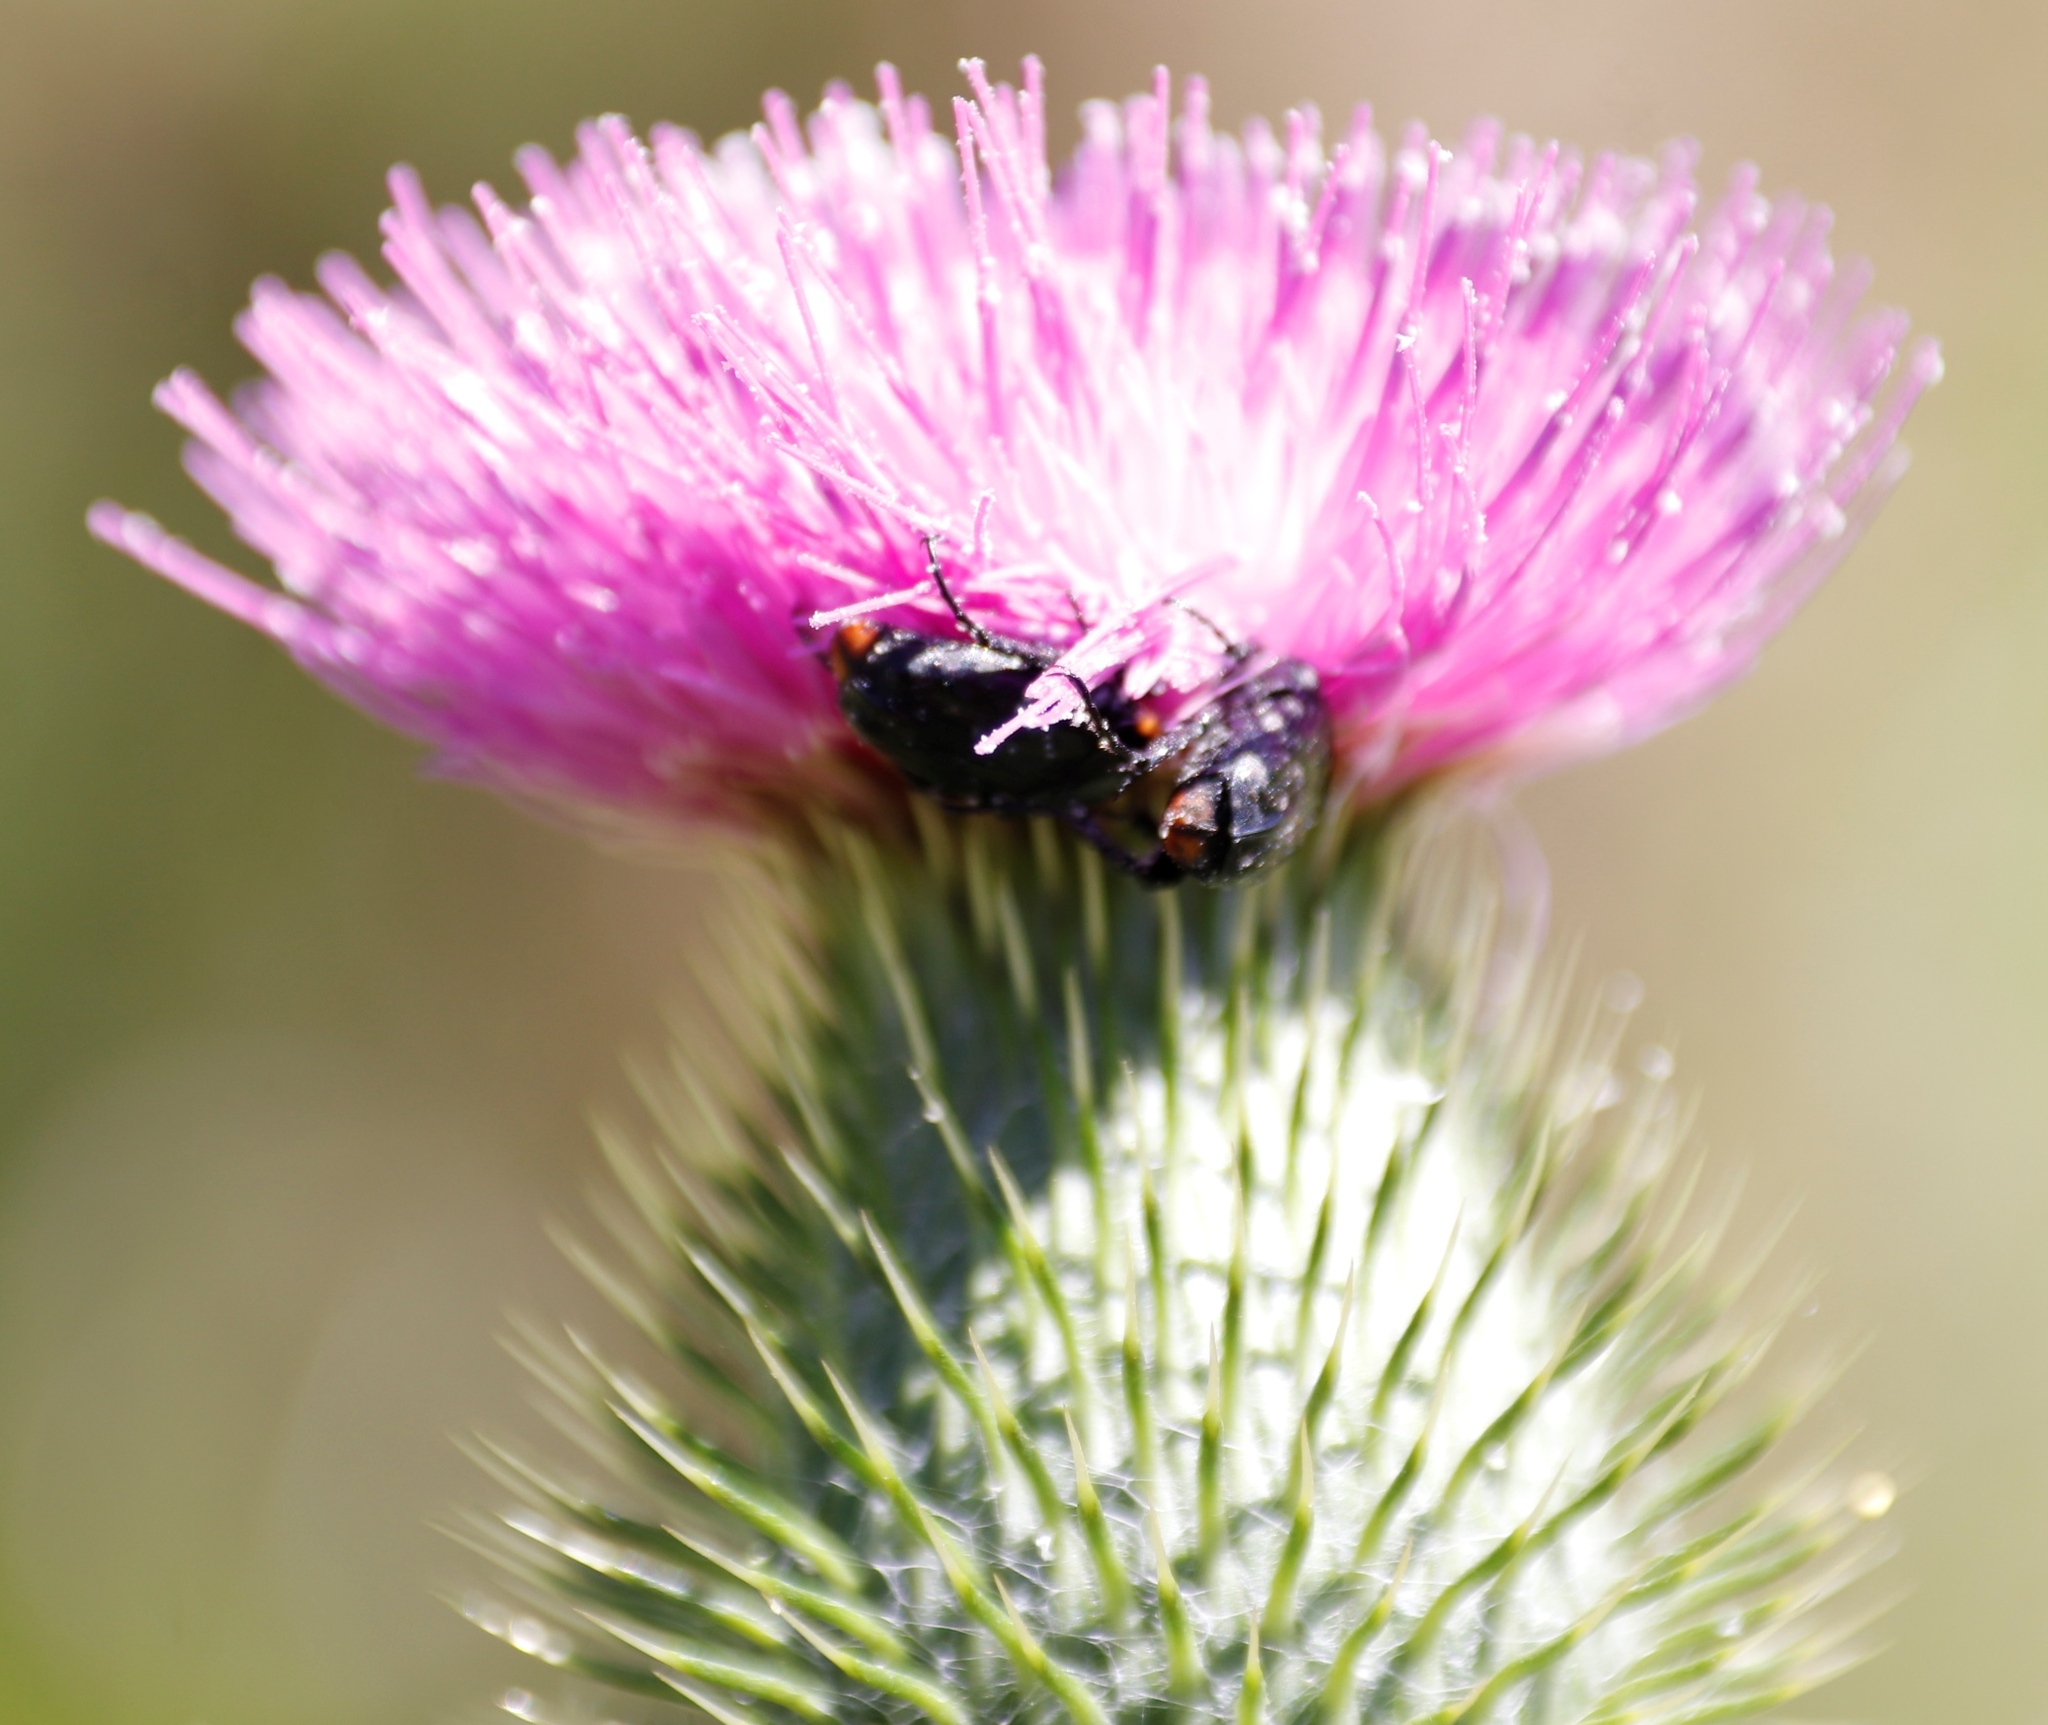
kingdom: Animalia
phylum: Arthropoda
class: Insecta
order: Coleoptera
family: Scarabaeidae
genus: Oxythyrea
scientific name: Oxythyrea
